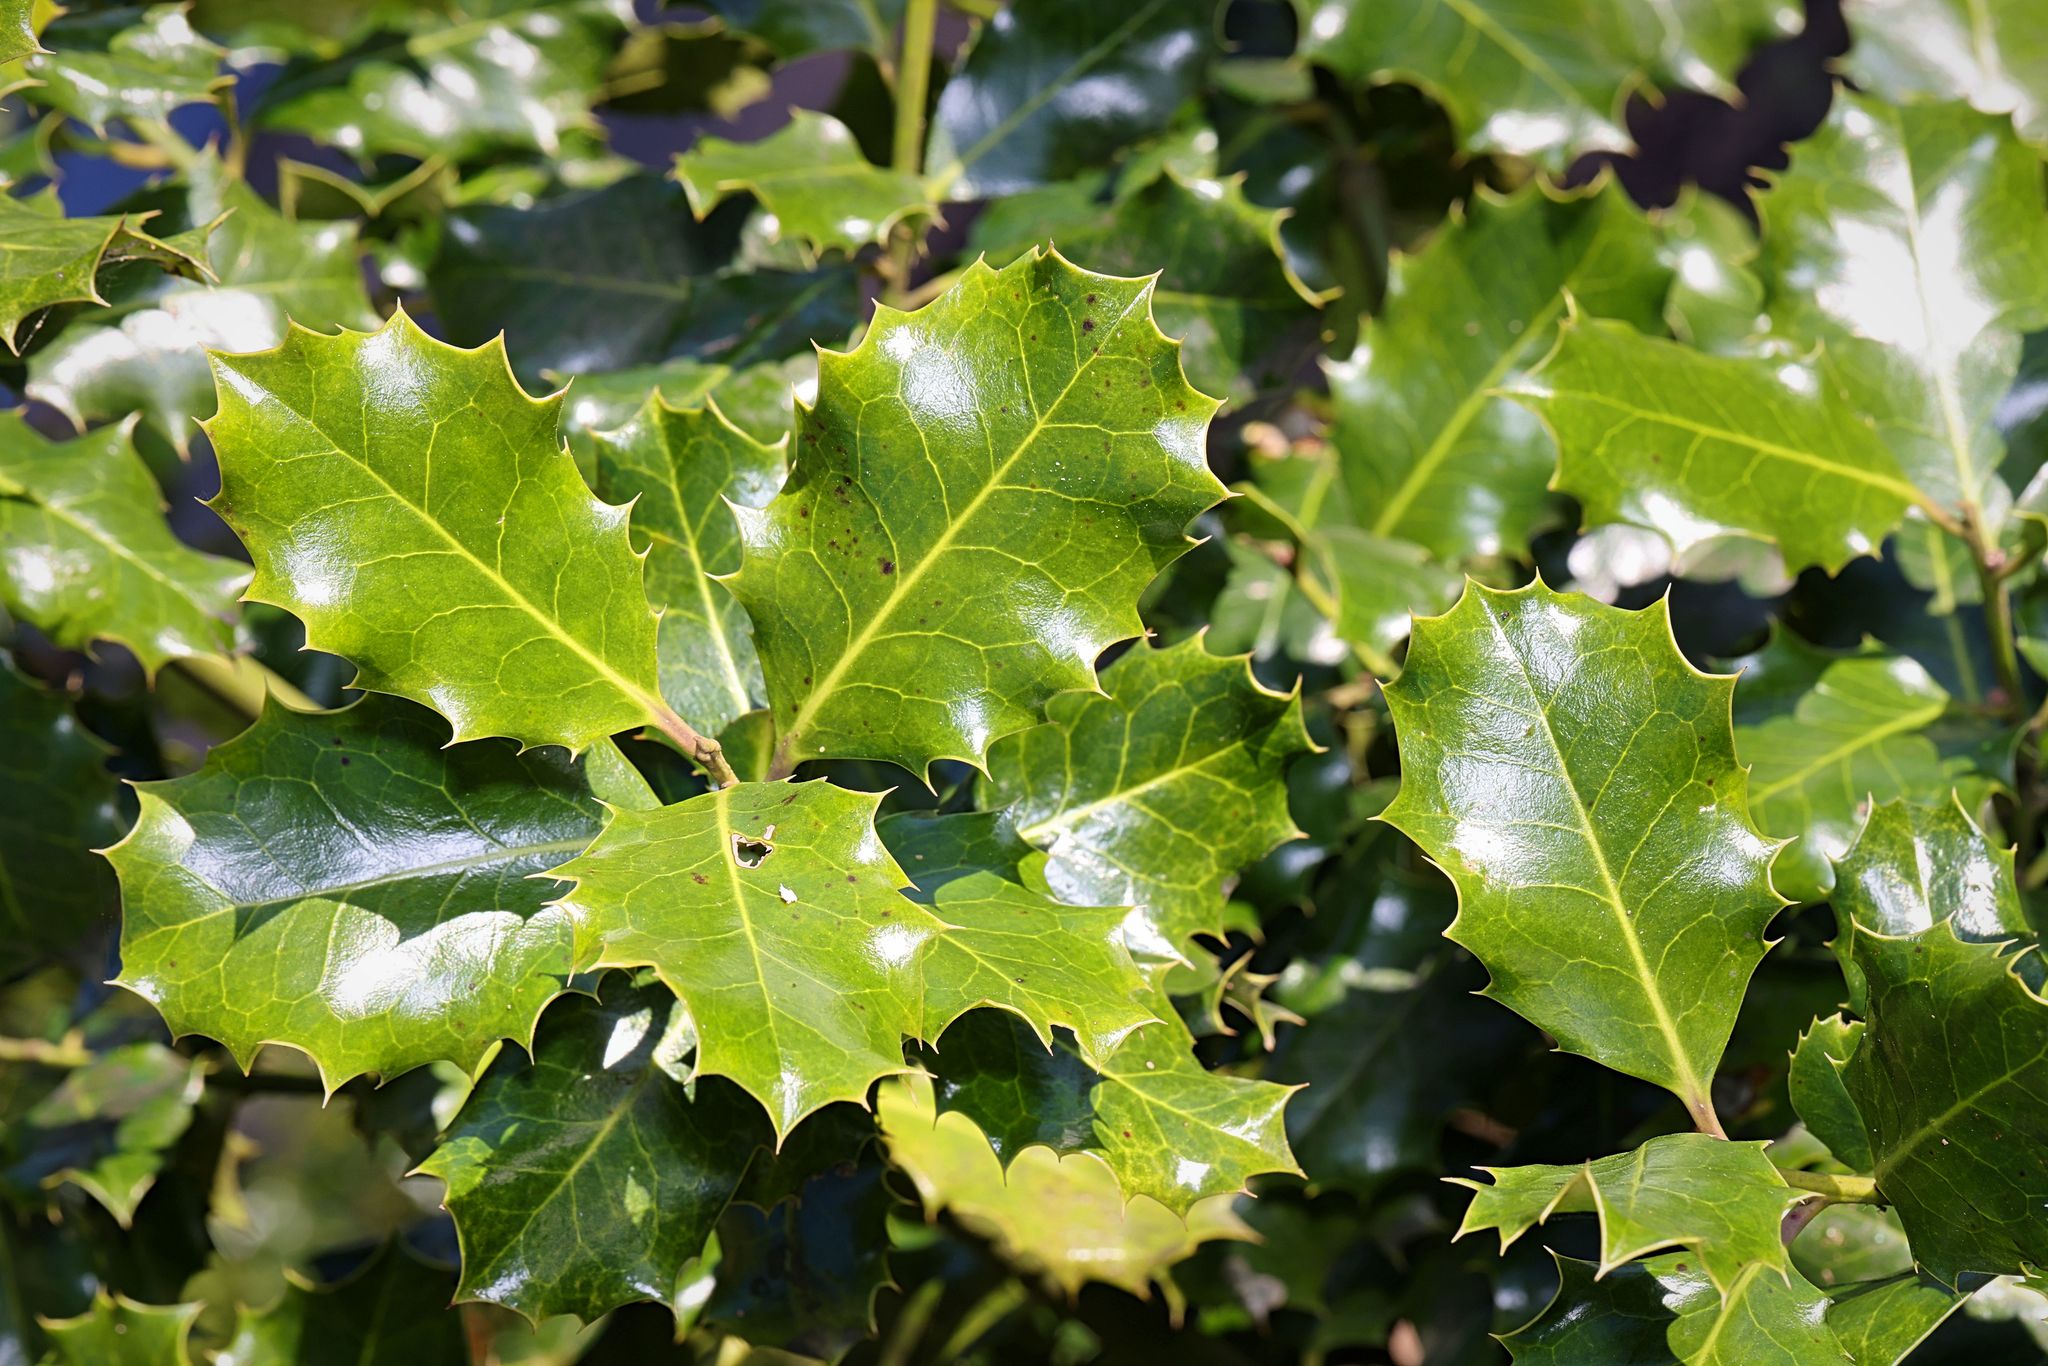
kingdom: Plantae
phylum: Tracheophyta
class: Magnoliopsida
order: Aquifoliales
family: Aquifoliaceae
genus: Ilex
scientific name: Ilex aquifolium
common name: English holly
